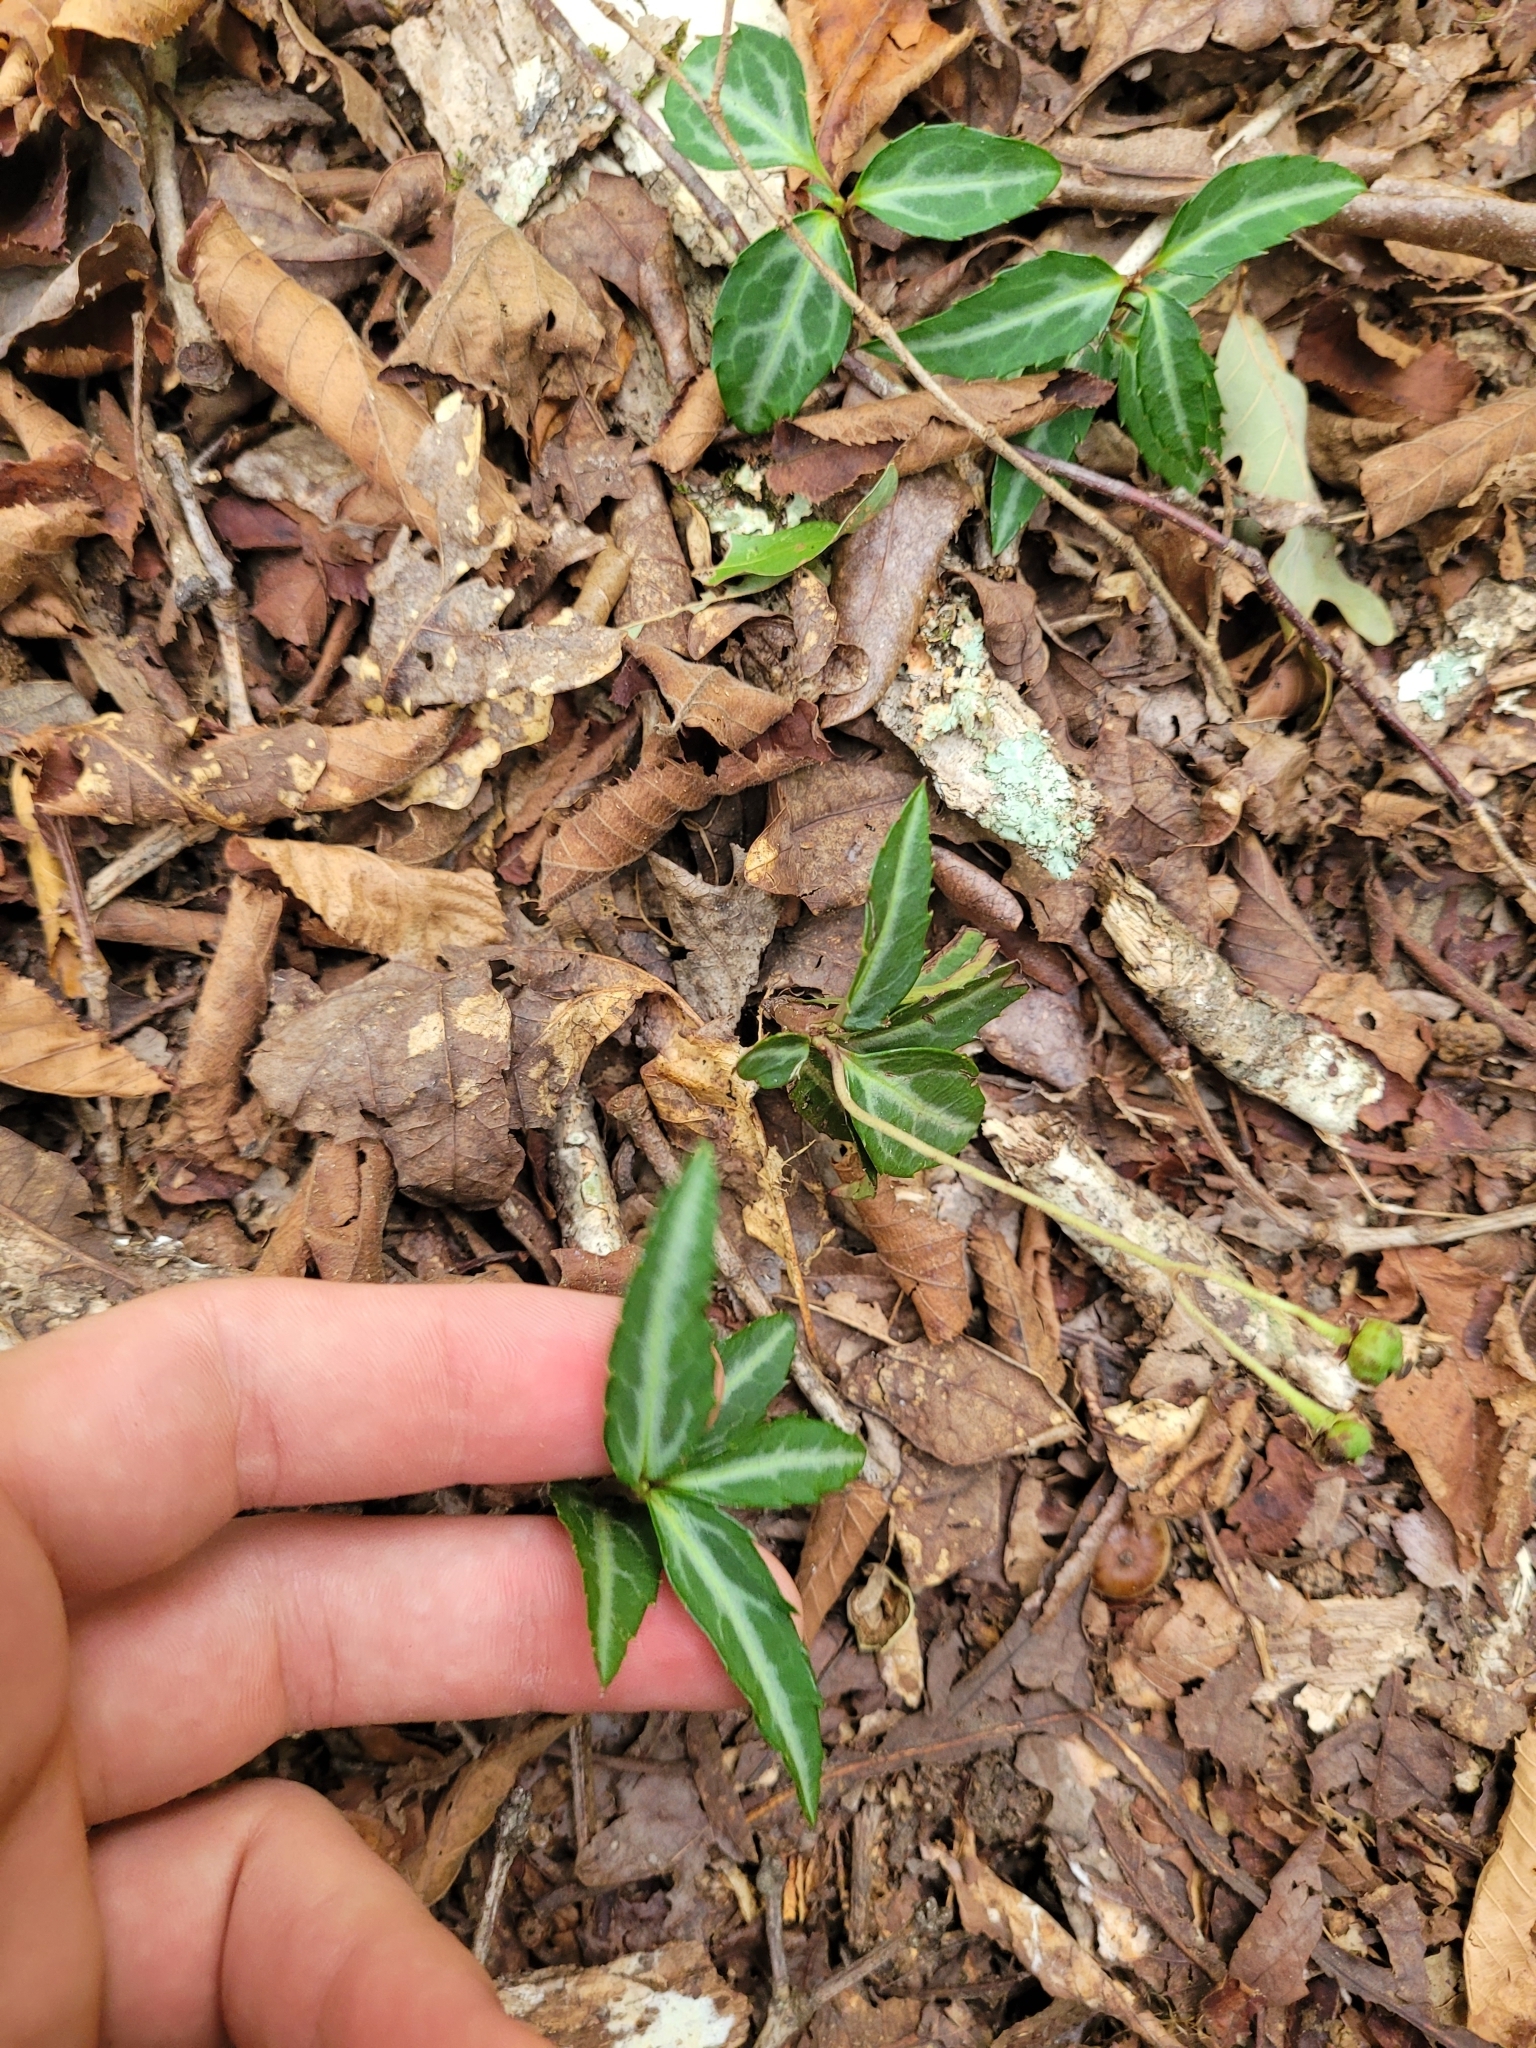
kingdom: Plantae
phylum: Tracheophyta
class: Magnoliopsida
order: Ericales
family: Ericaceae
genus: Chimaphila
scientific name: Chimaphila maculata
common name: Spotted pipsissewa
